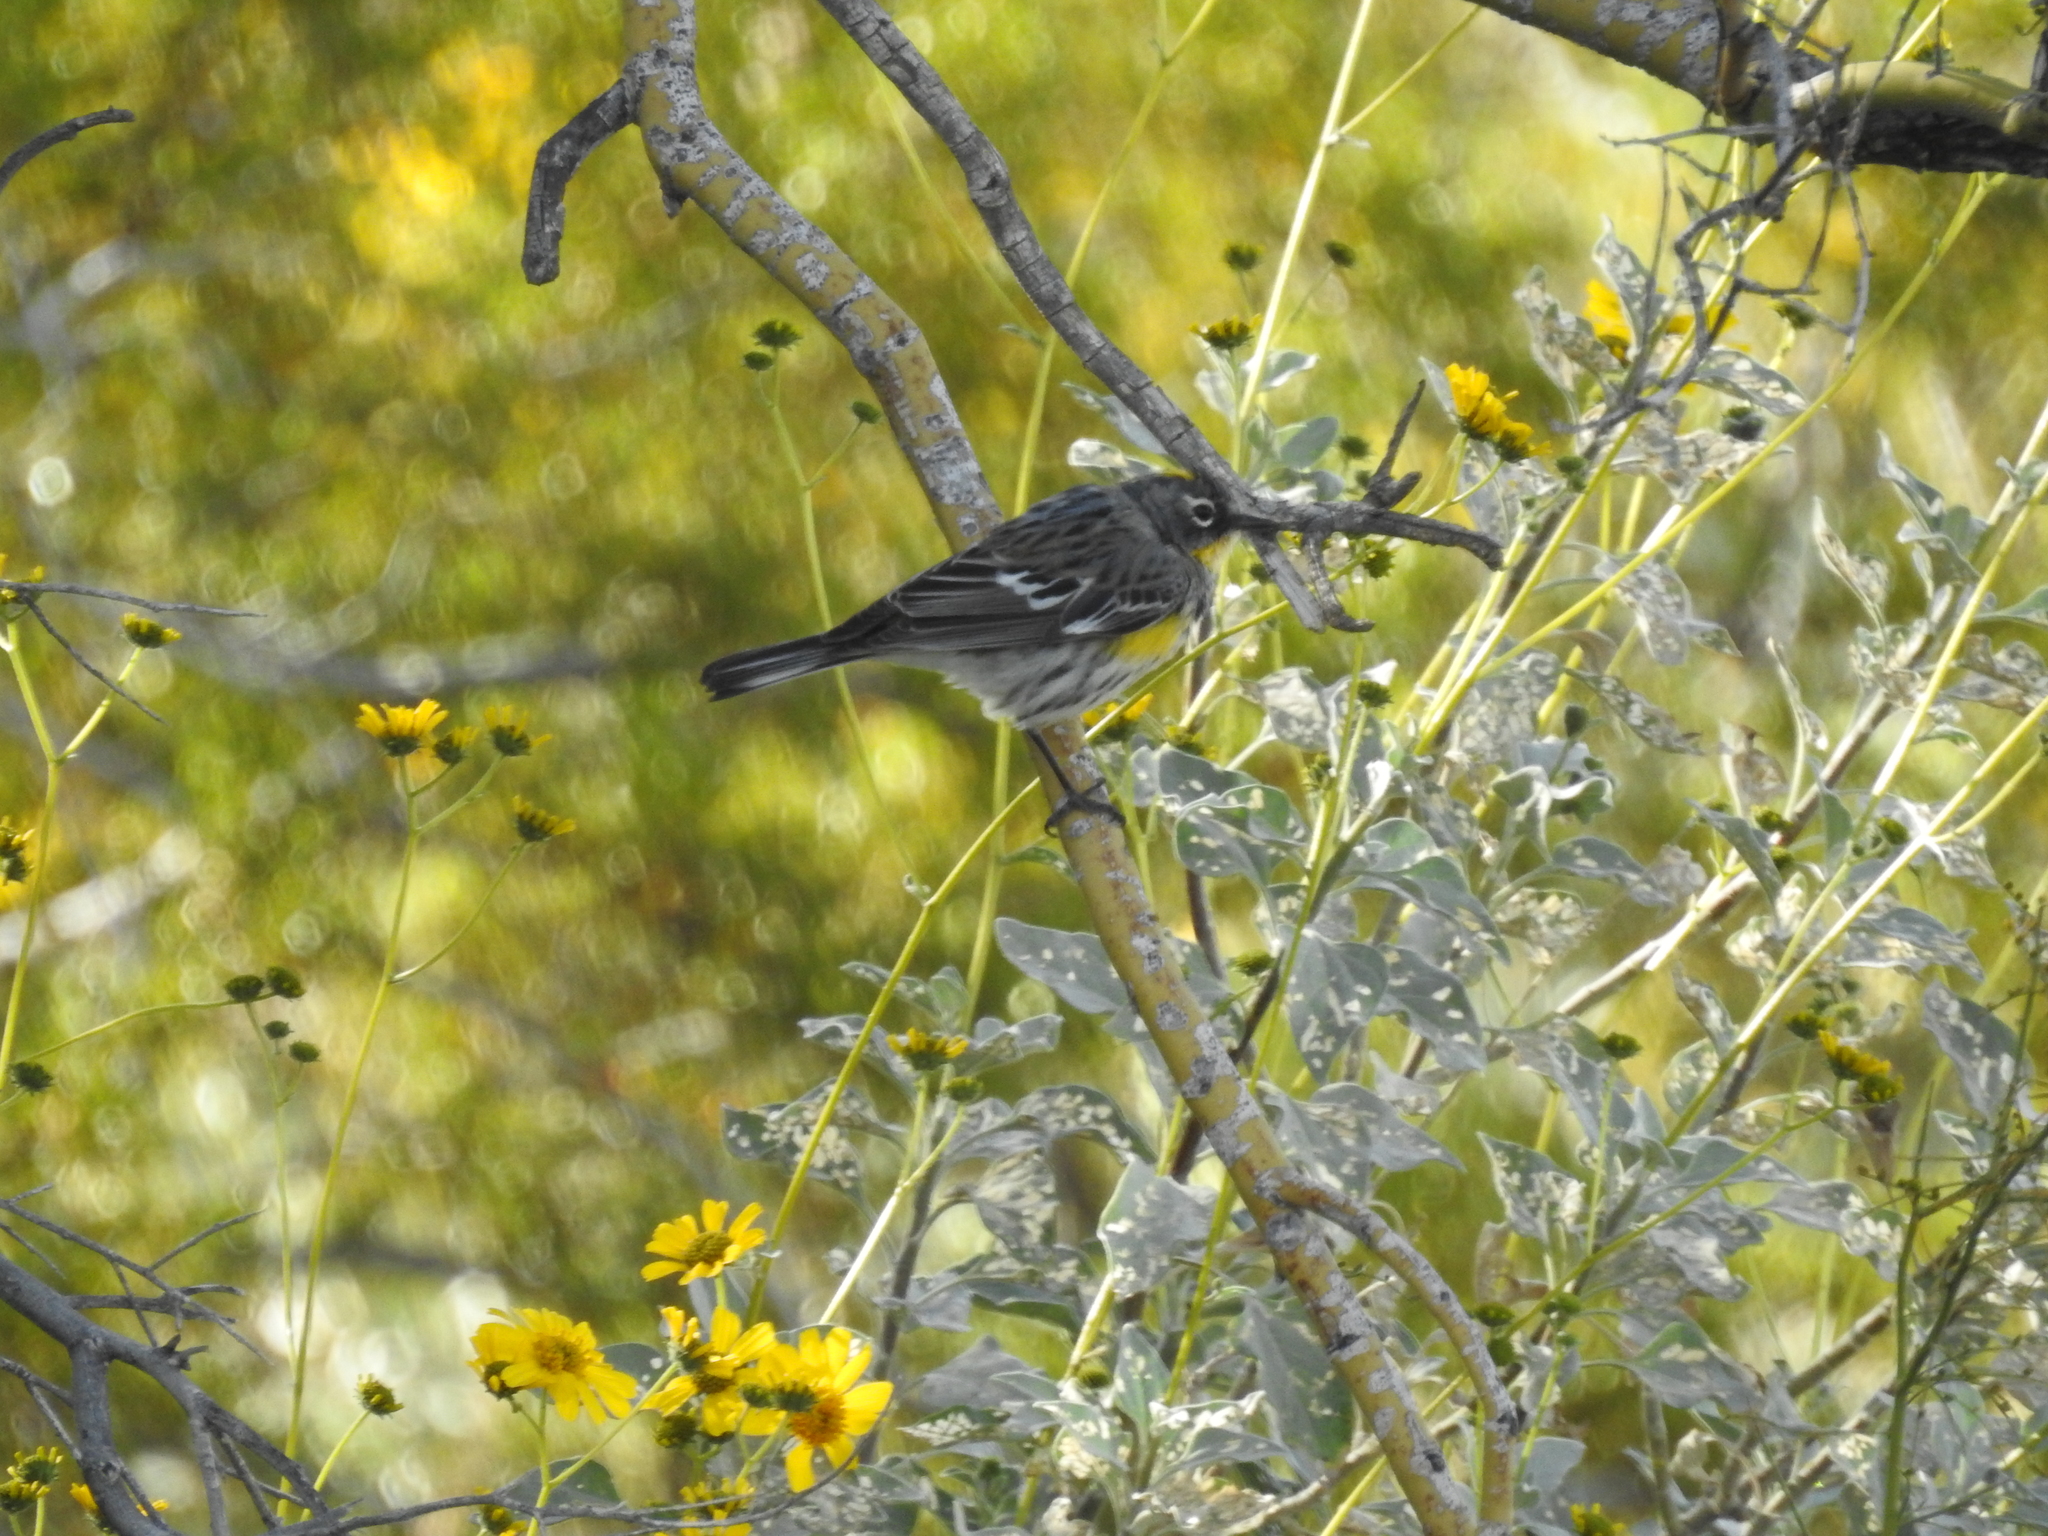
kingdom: Animalia
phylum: Chordata
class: Aves
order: Passeriformes
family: Parulidae
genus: Setophaga
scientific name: Setophaga coronata
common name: Myrtle warbler
